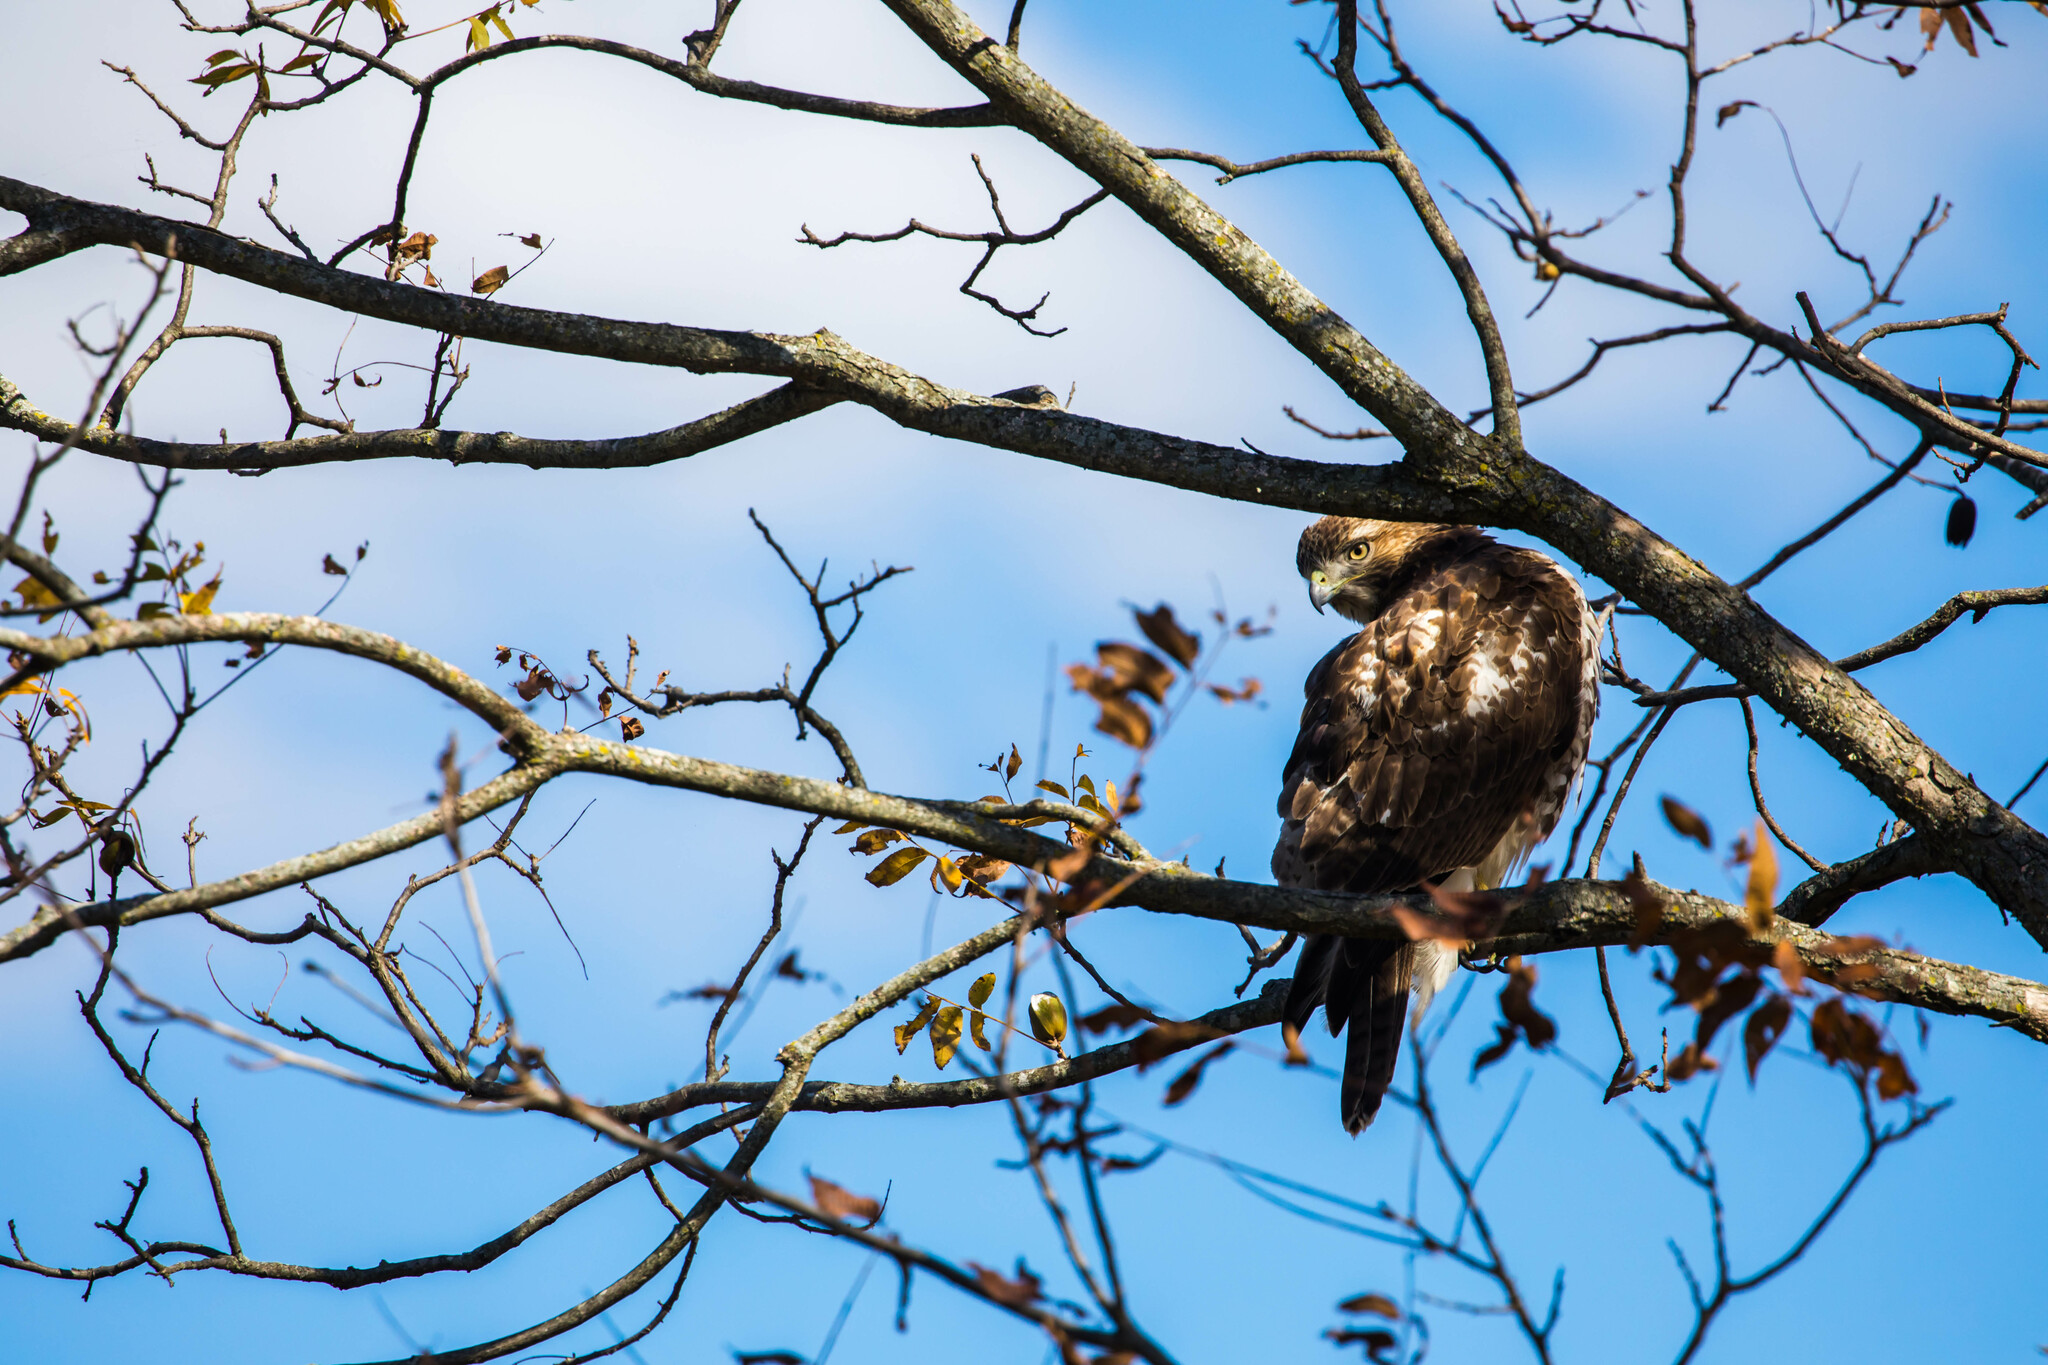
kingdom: Animalia
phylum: Chordata
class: Aves
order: Accipitriformes
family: Accipitridae
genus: Buteo
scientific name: Buteo jamaicensis
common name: Red-tailed hawk
